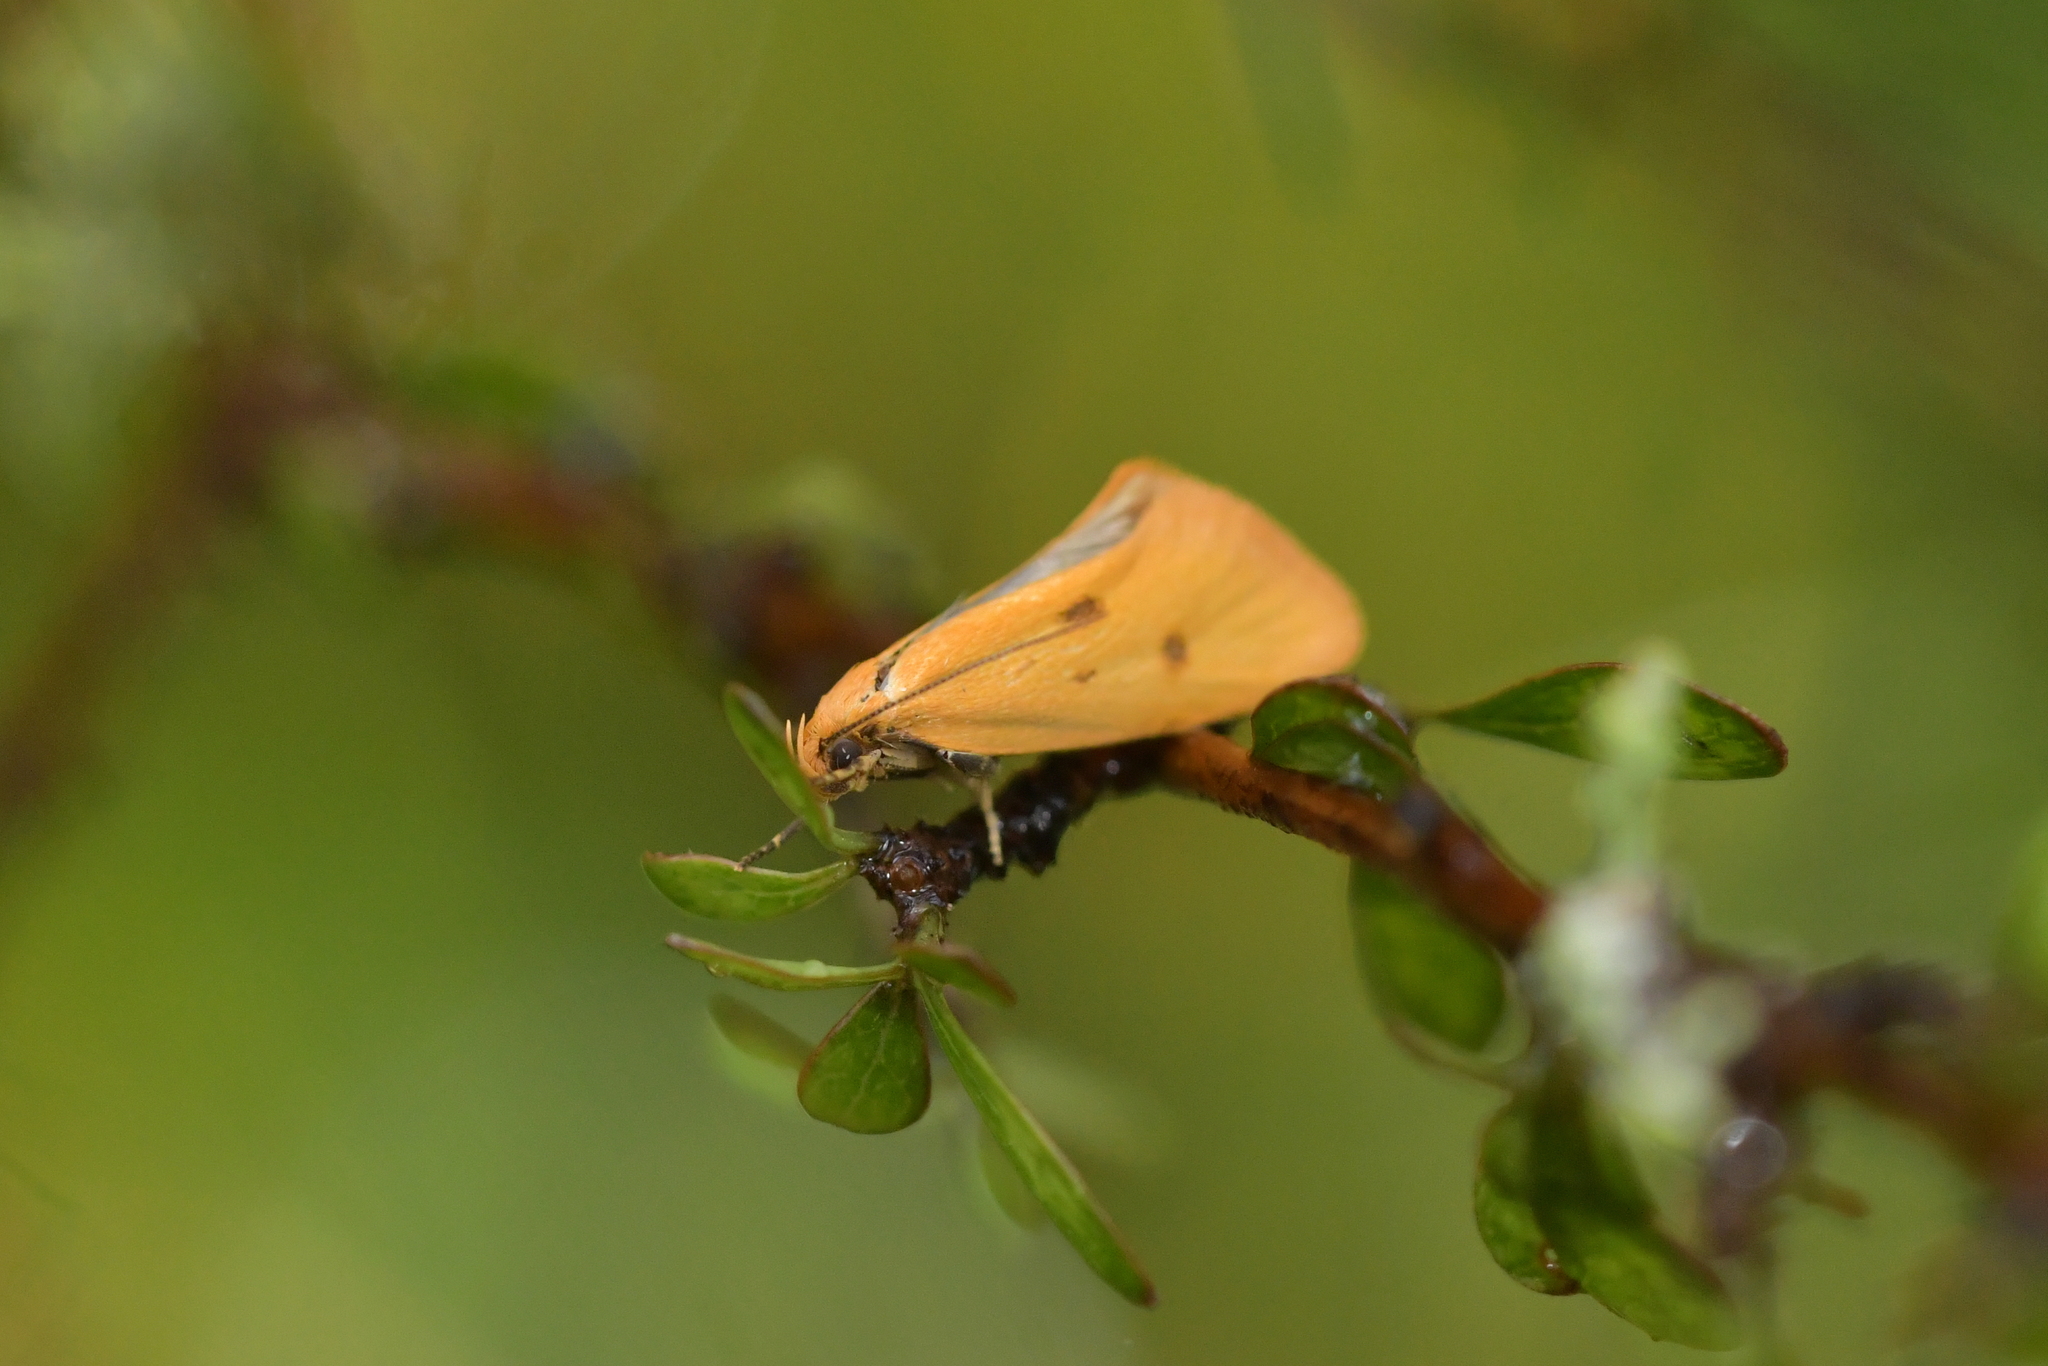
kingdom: Animalia
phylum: Arthropoda
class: Insecta
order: Lepidoptera
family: Oecophoridae
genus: Tingena
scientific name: Tingena grata
